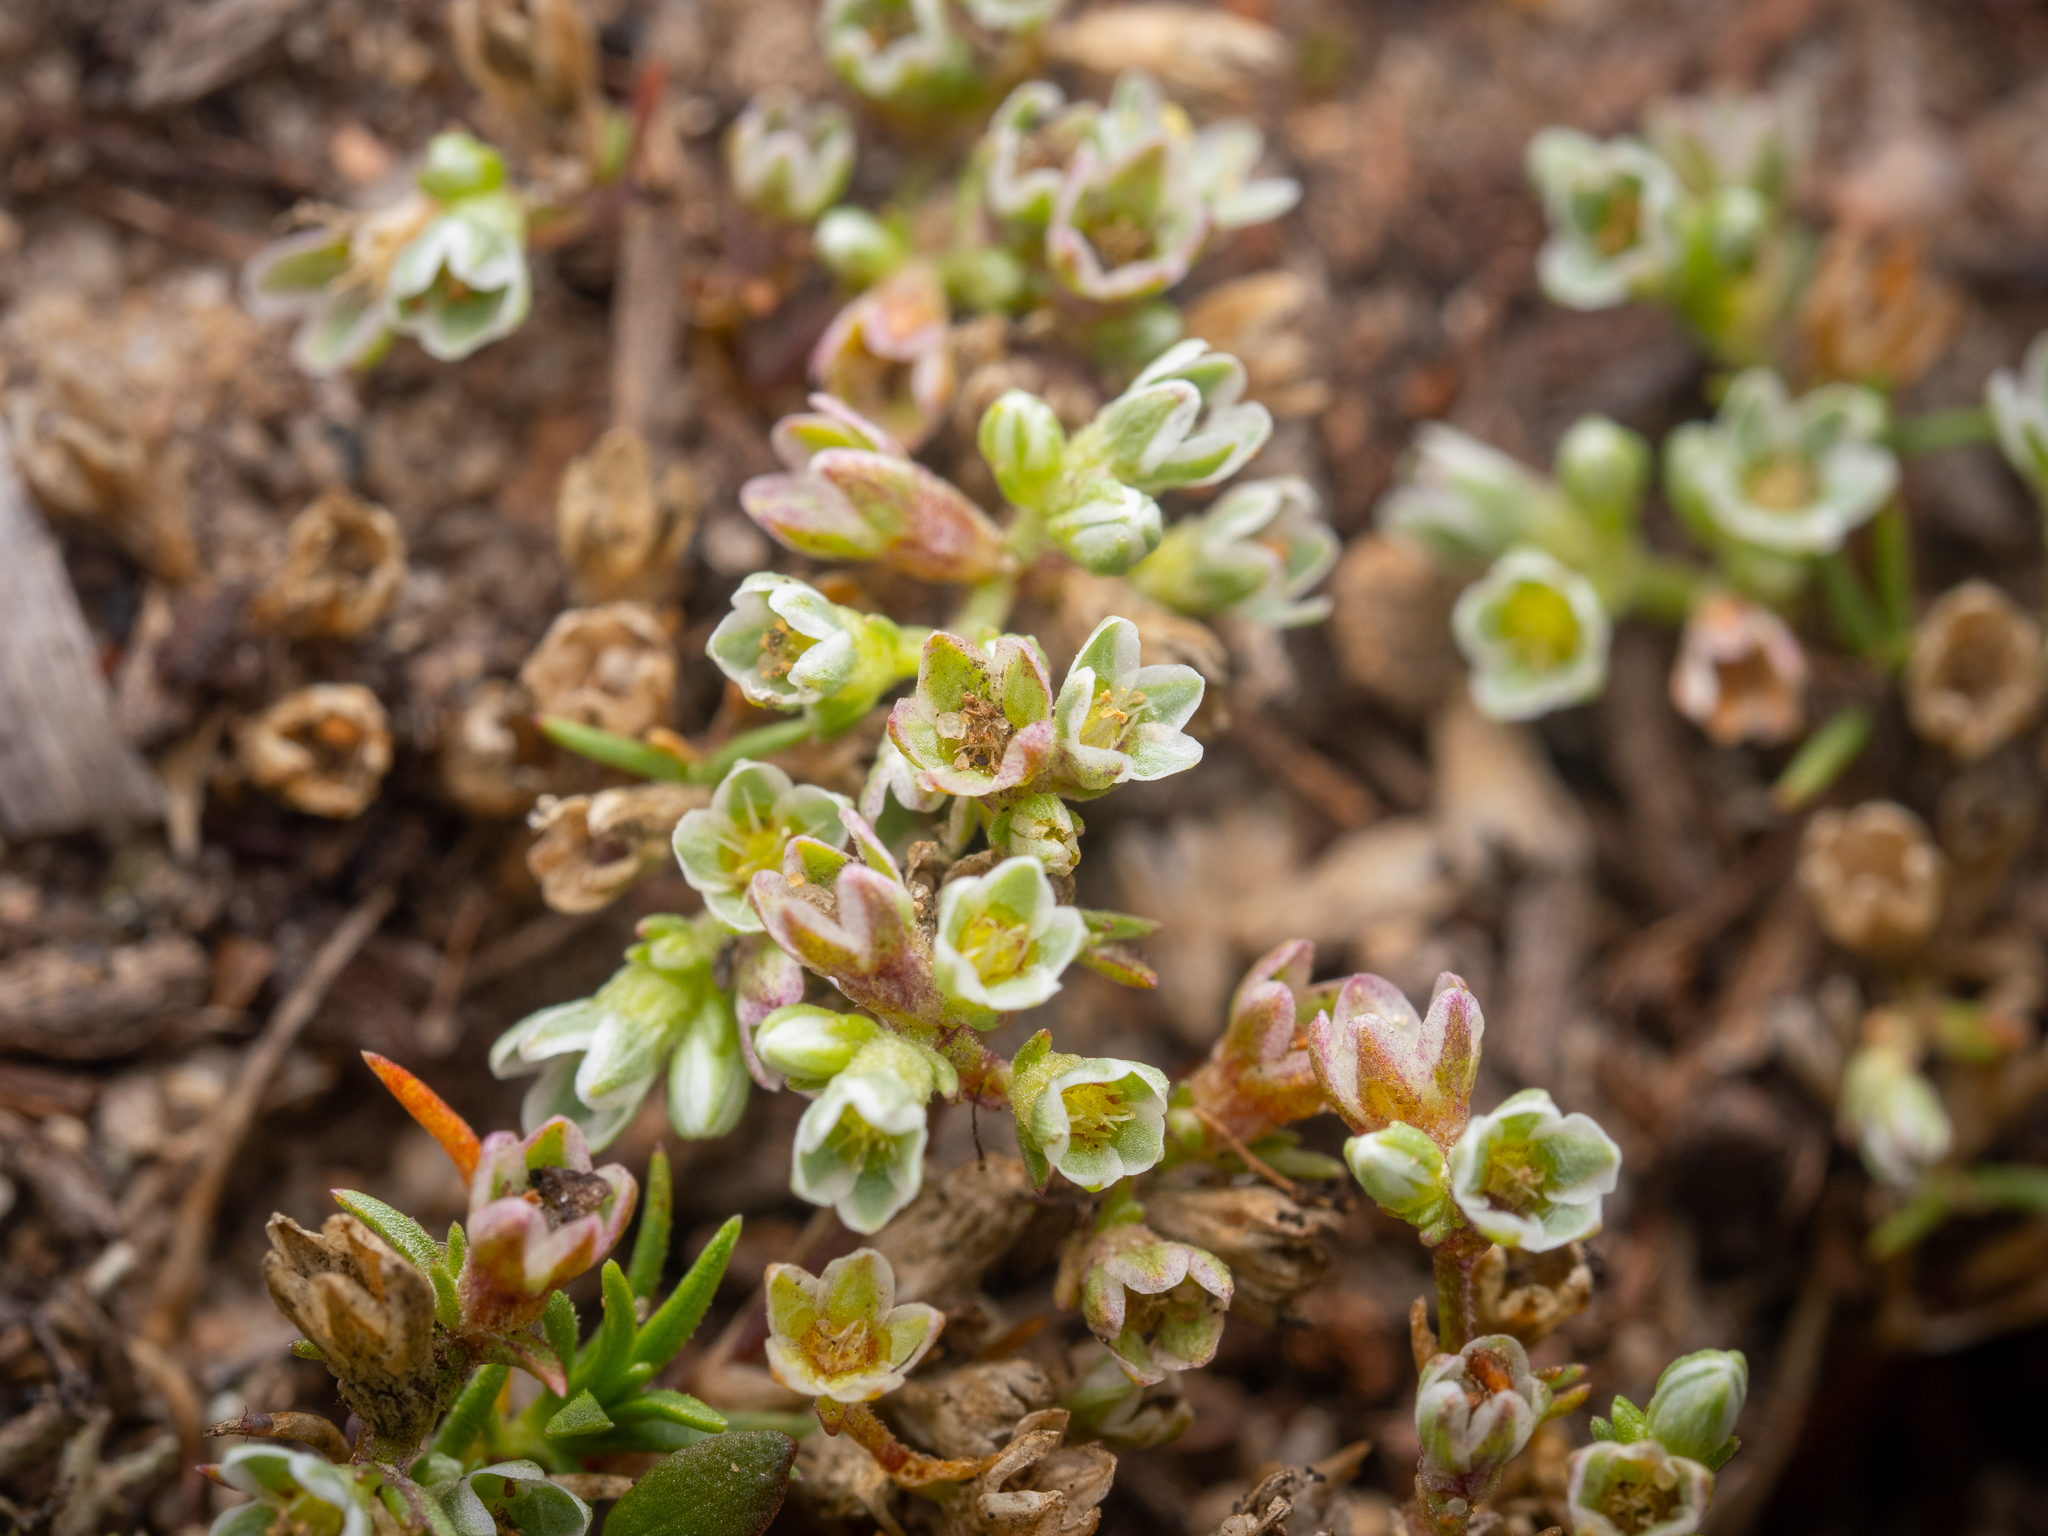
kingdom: Plantae
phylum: Tracheophyta
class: Magnoliopsida
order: Caryophyllales
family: Caryophyllaceae
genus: Scleranthus
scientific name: Scleranthus perennis
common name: Perennial knawel
